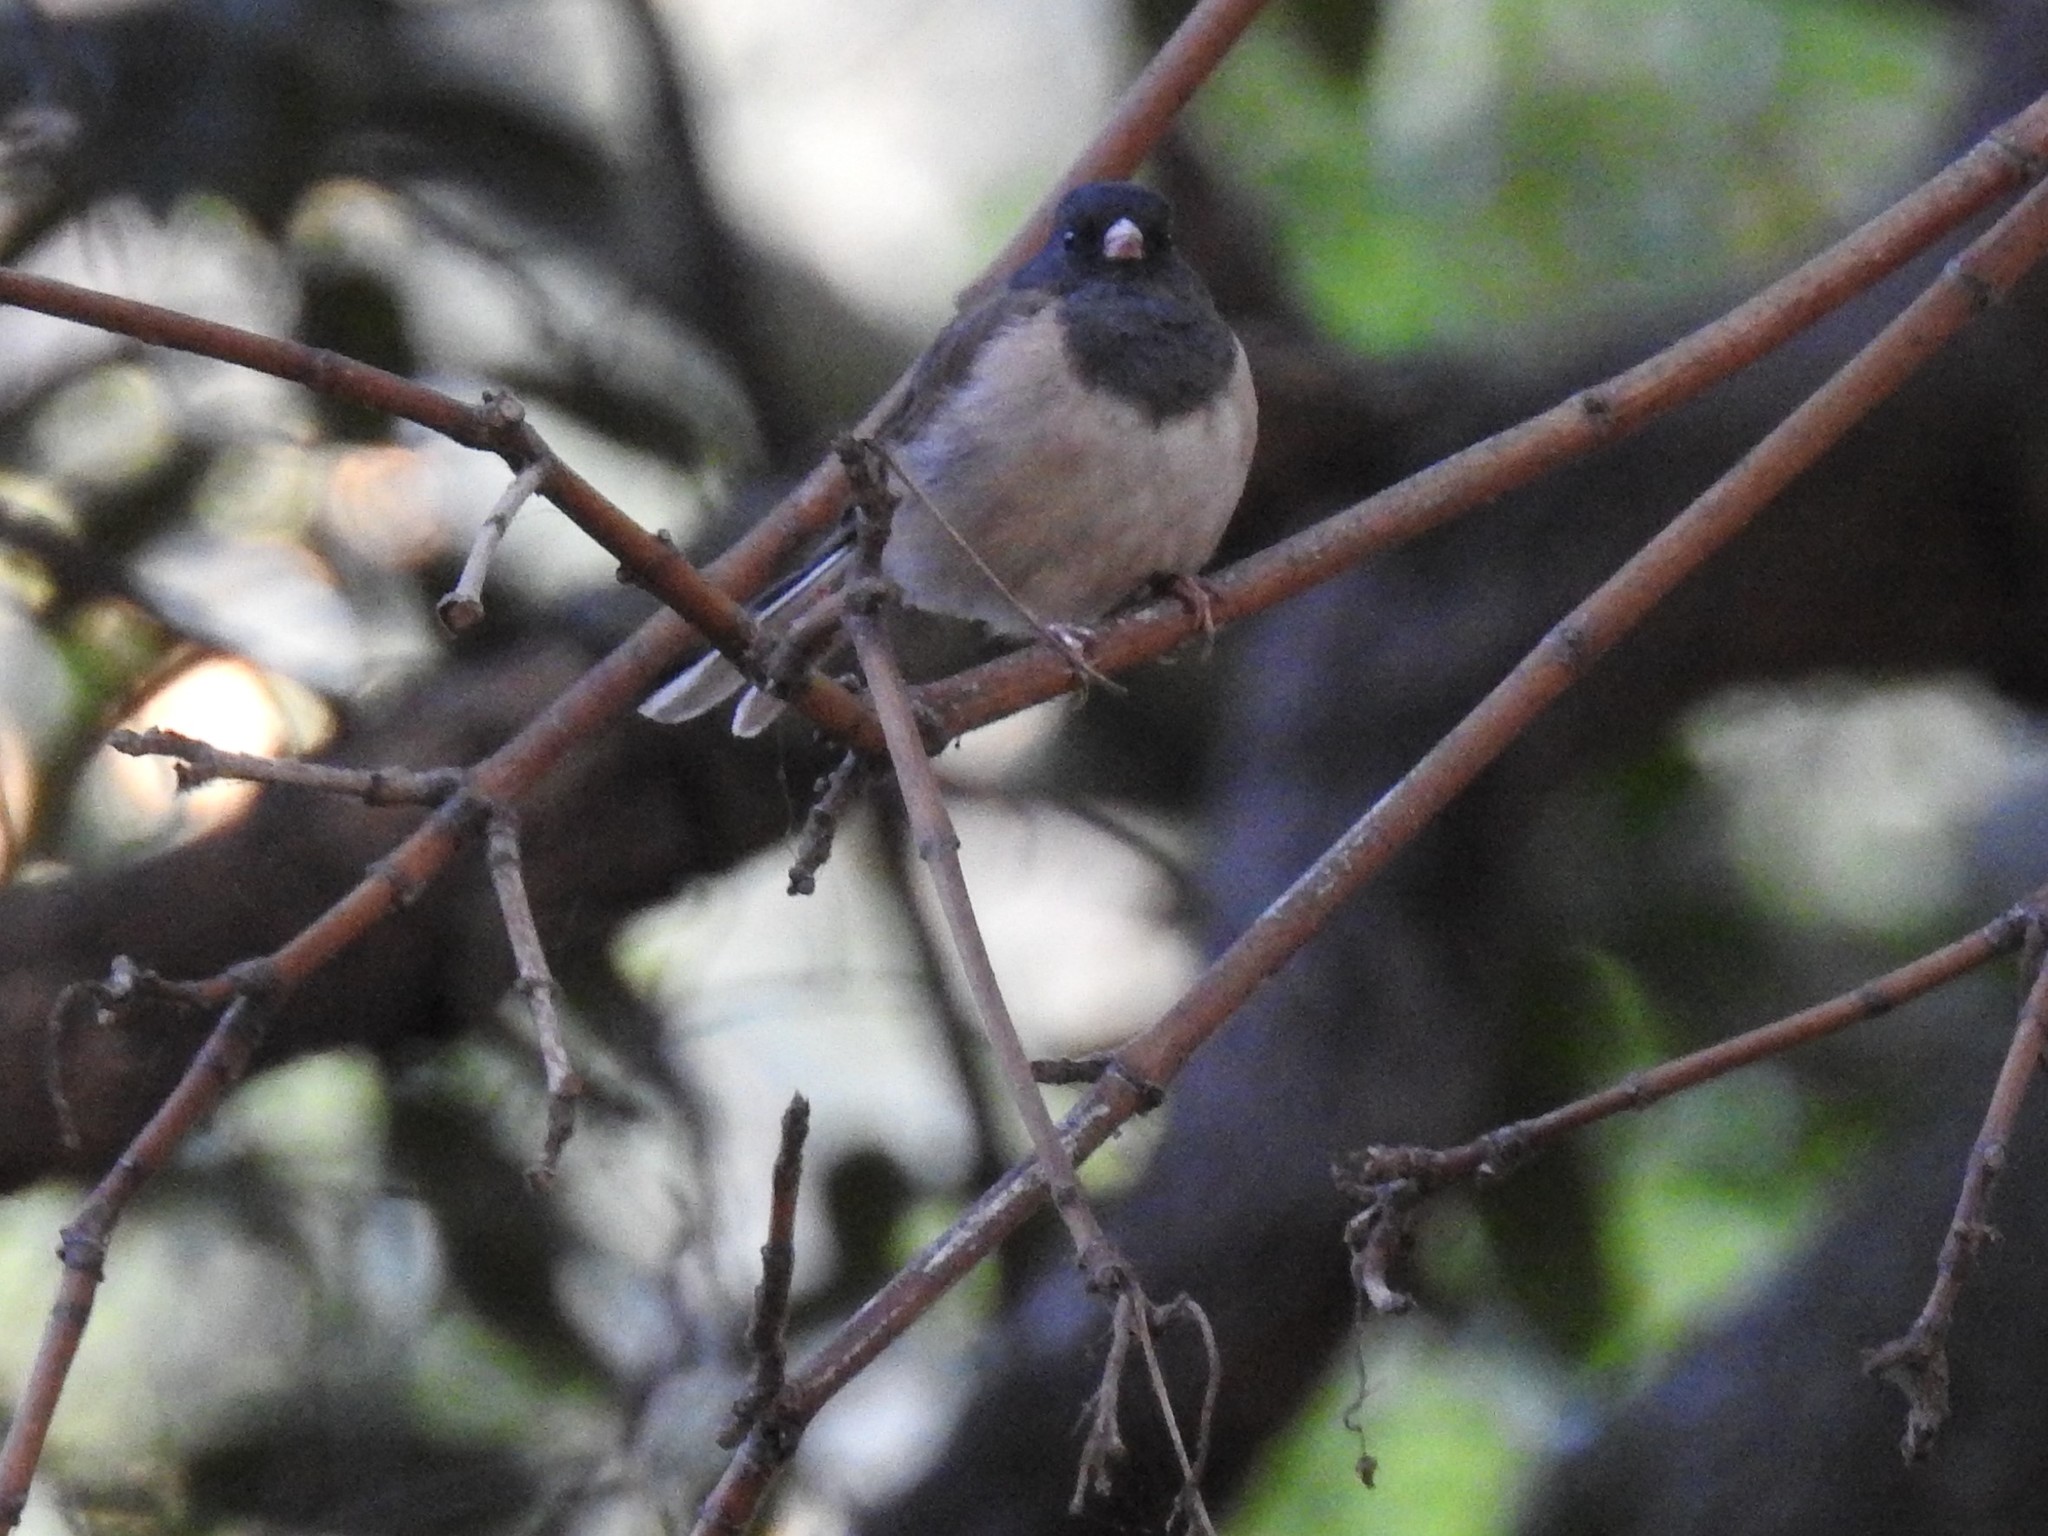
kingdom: Animalia
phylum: Chordata
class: Aves
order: Passeriformes
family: Passerellidae
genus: Junco
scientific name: Junco hyemalis
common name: Dark-eyed junco
